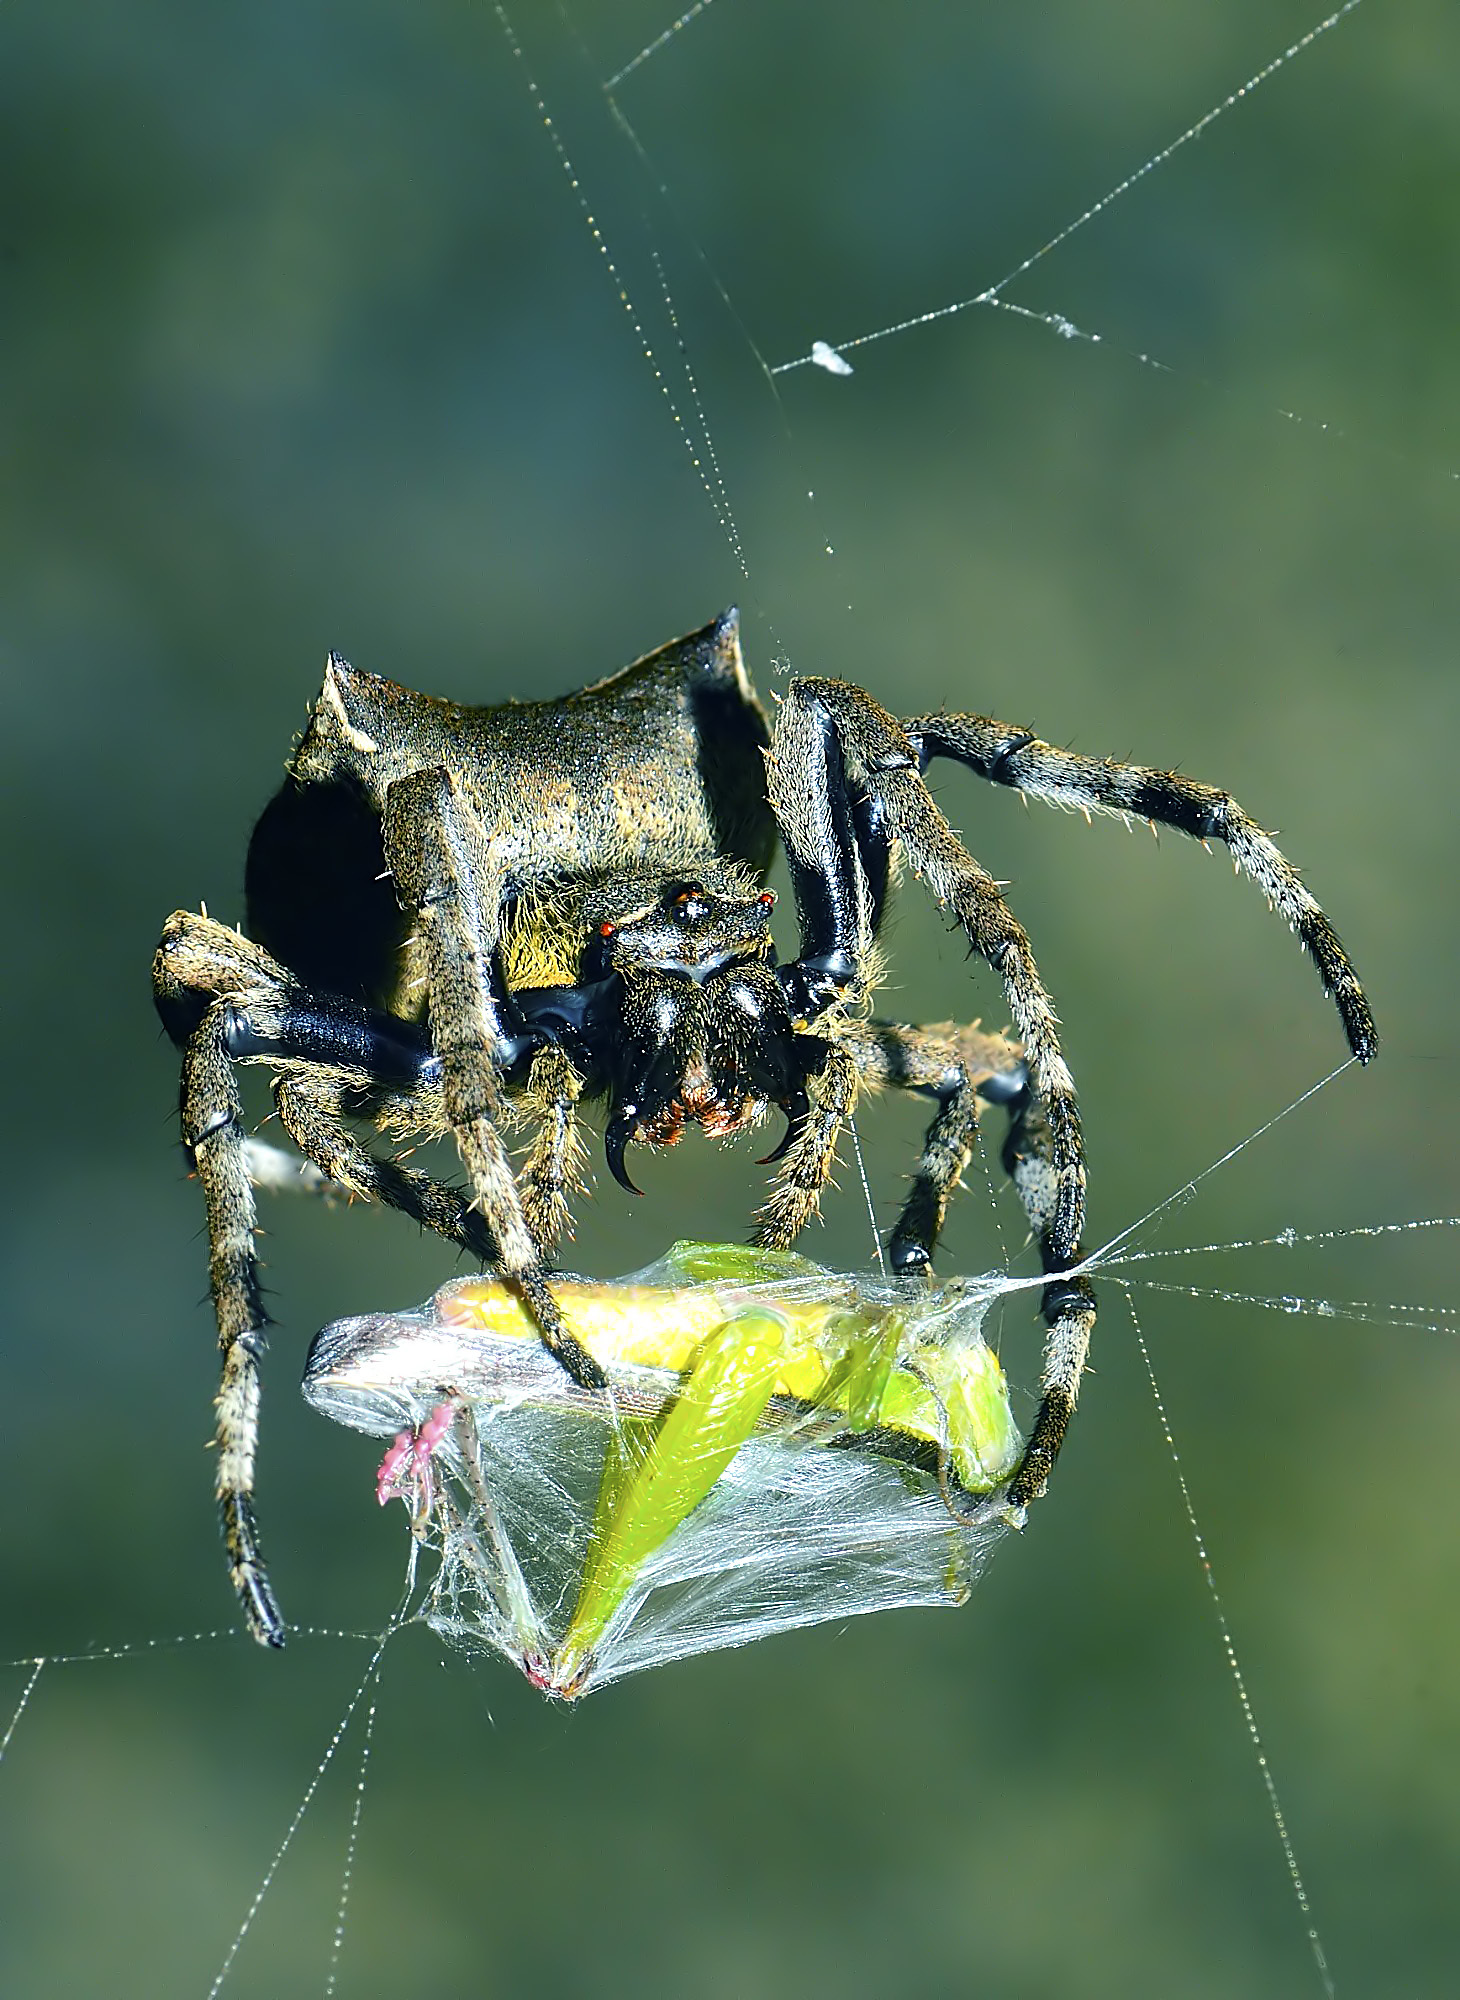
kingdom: Animalia
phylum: Arthropoda
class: Arachnida
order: Araneae
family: Araneidae
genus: Parawixia
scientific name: Parawixia dehaani
